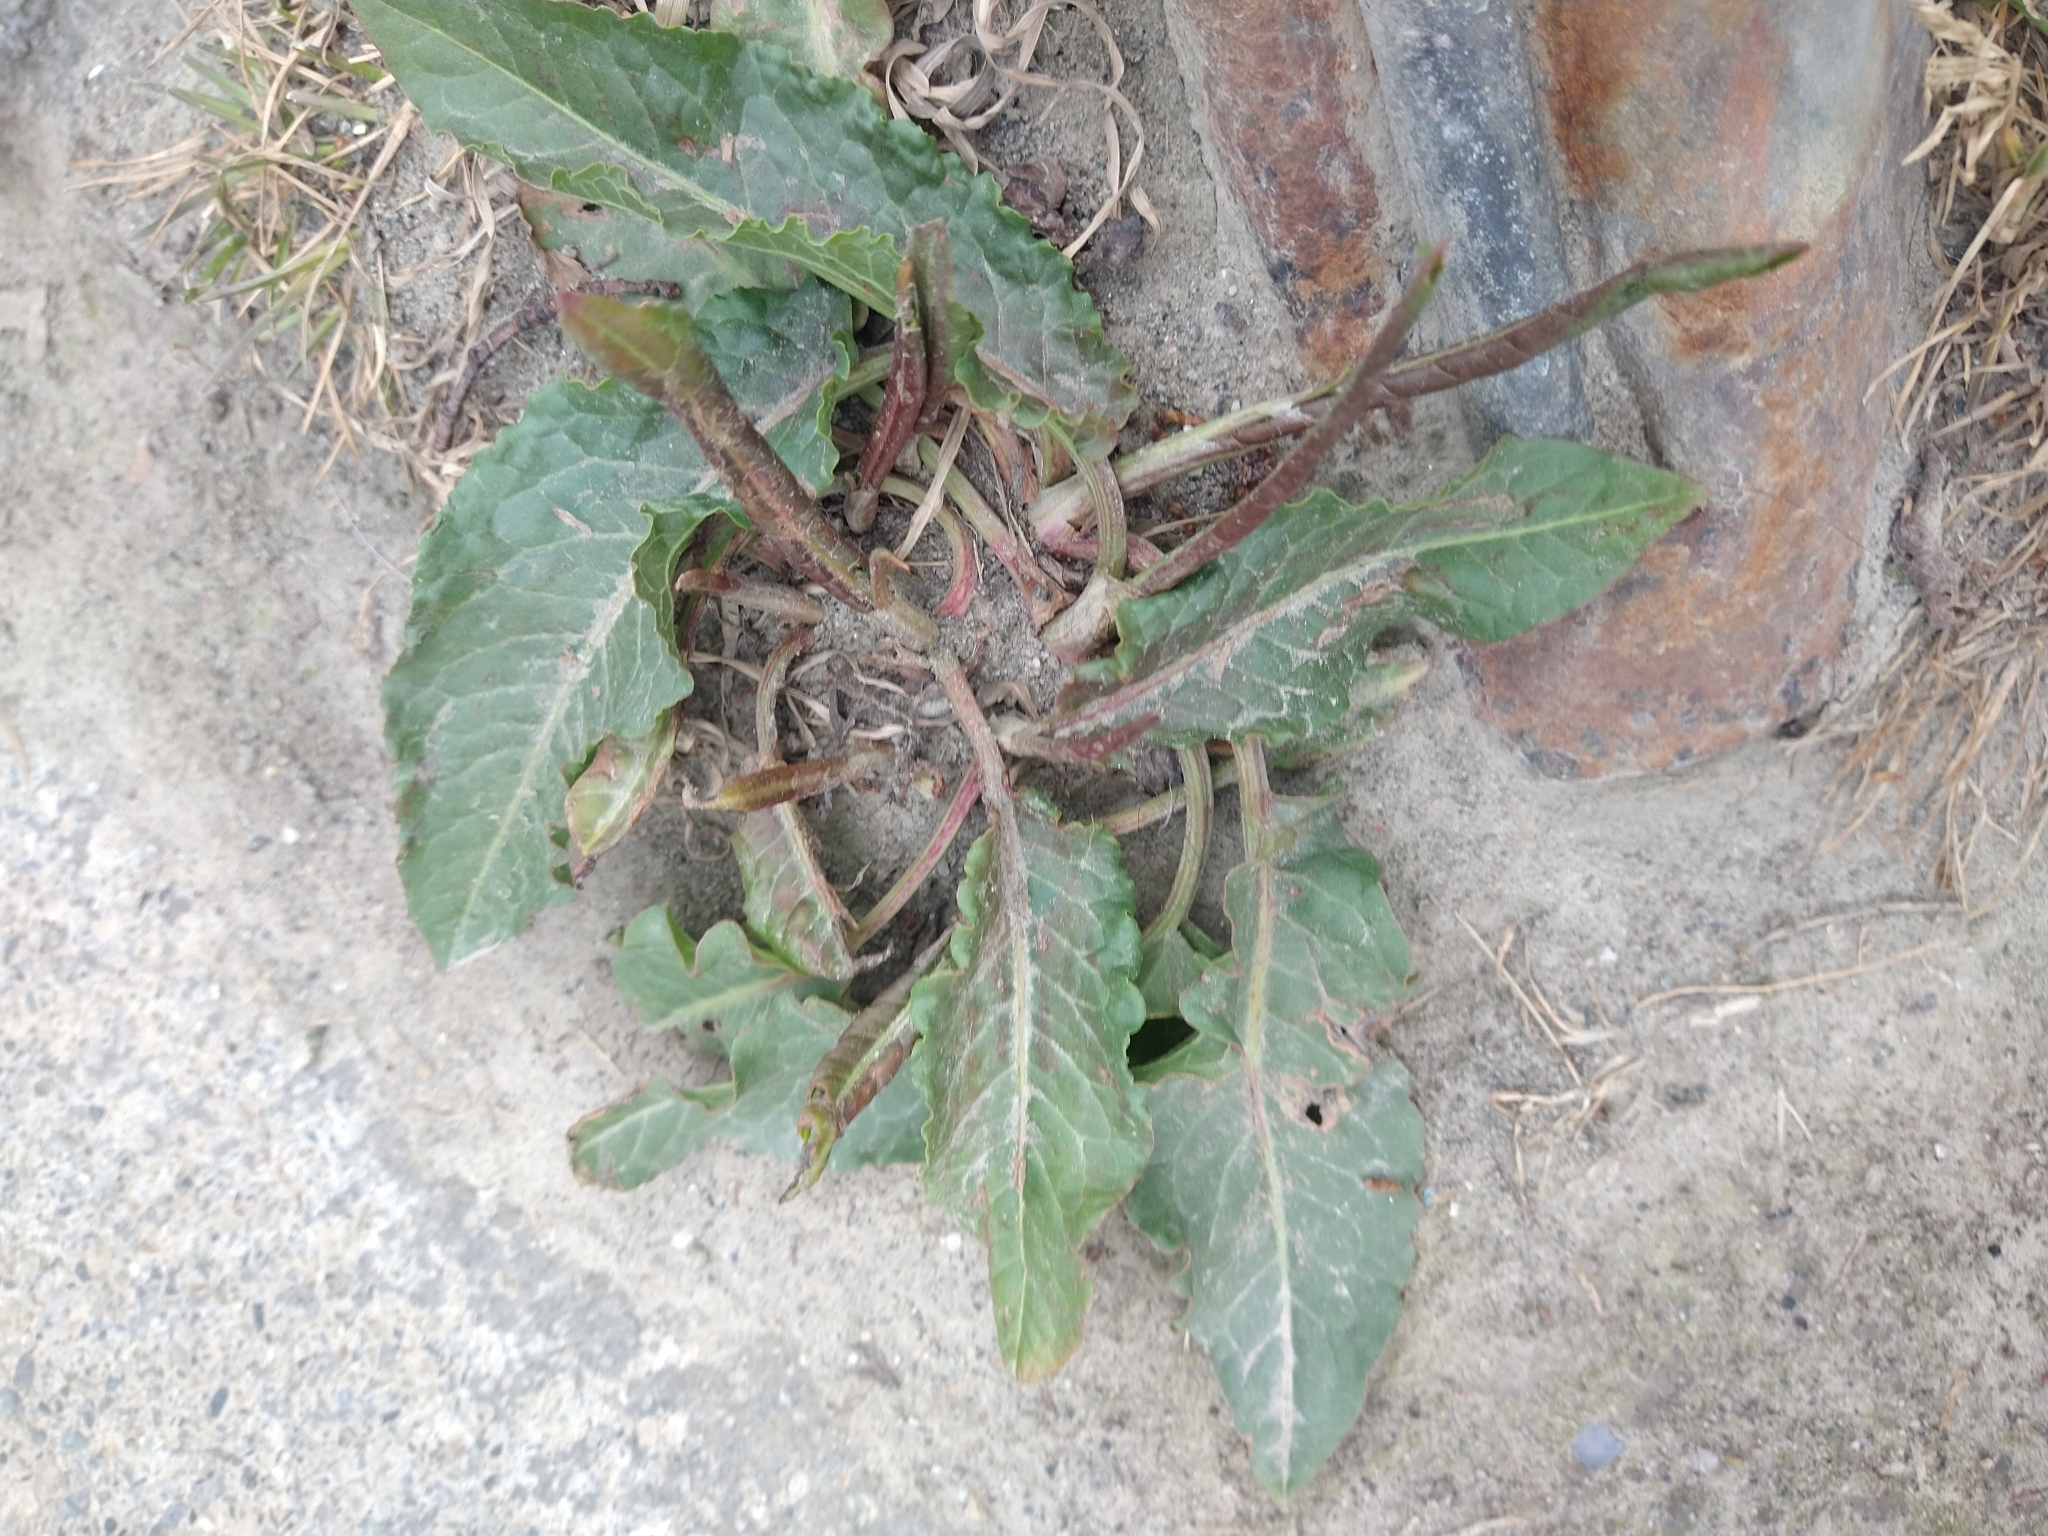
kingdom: Plantae
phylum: Tracheophyta
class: Magnoliopsida
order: Caryophyllales
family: Polygonaceae
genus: Rumex
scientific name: Rumex crispus
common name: Curled dock
